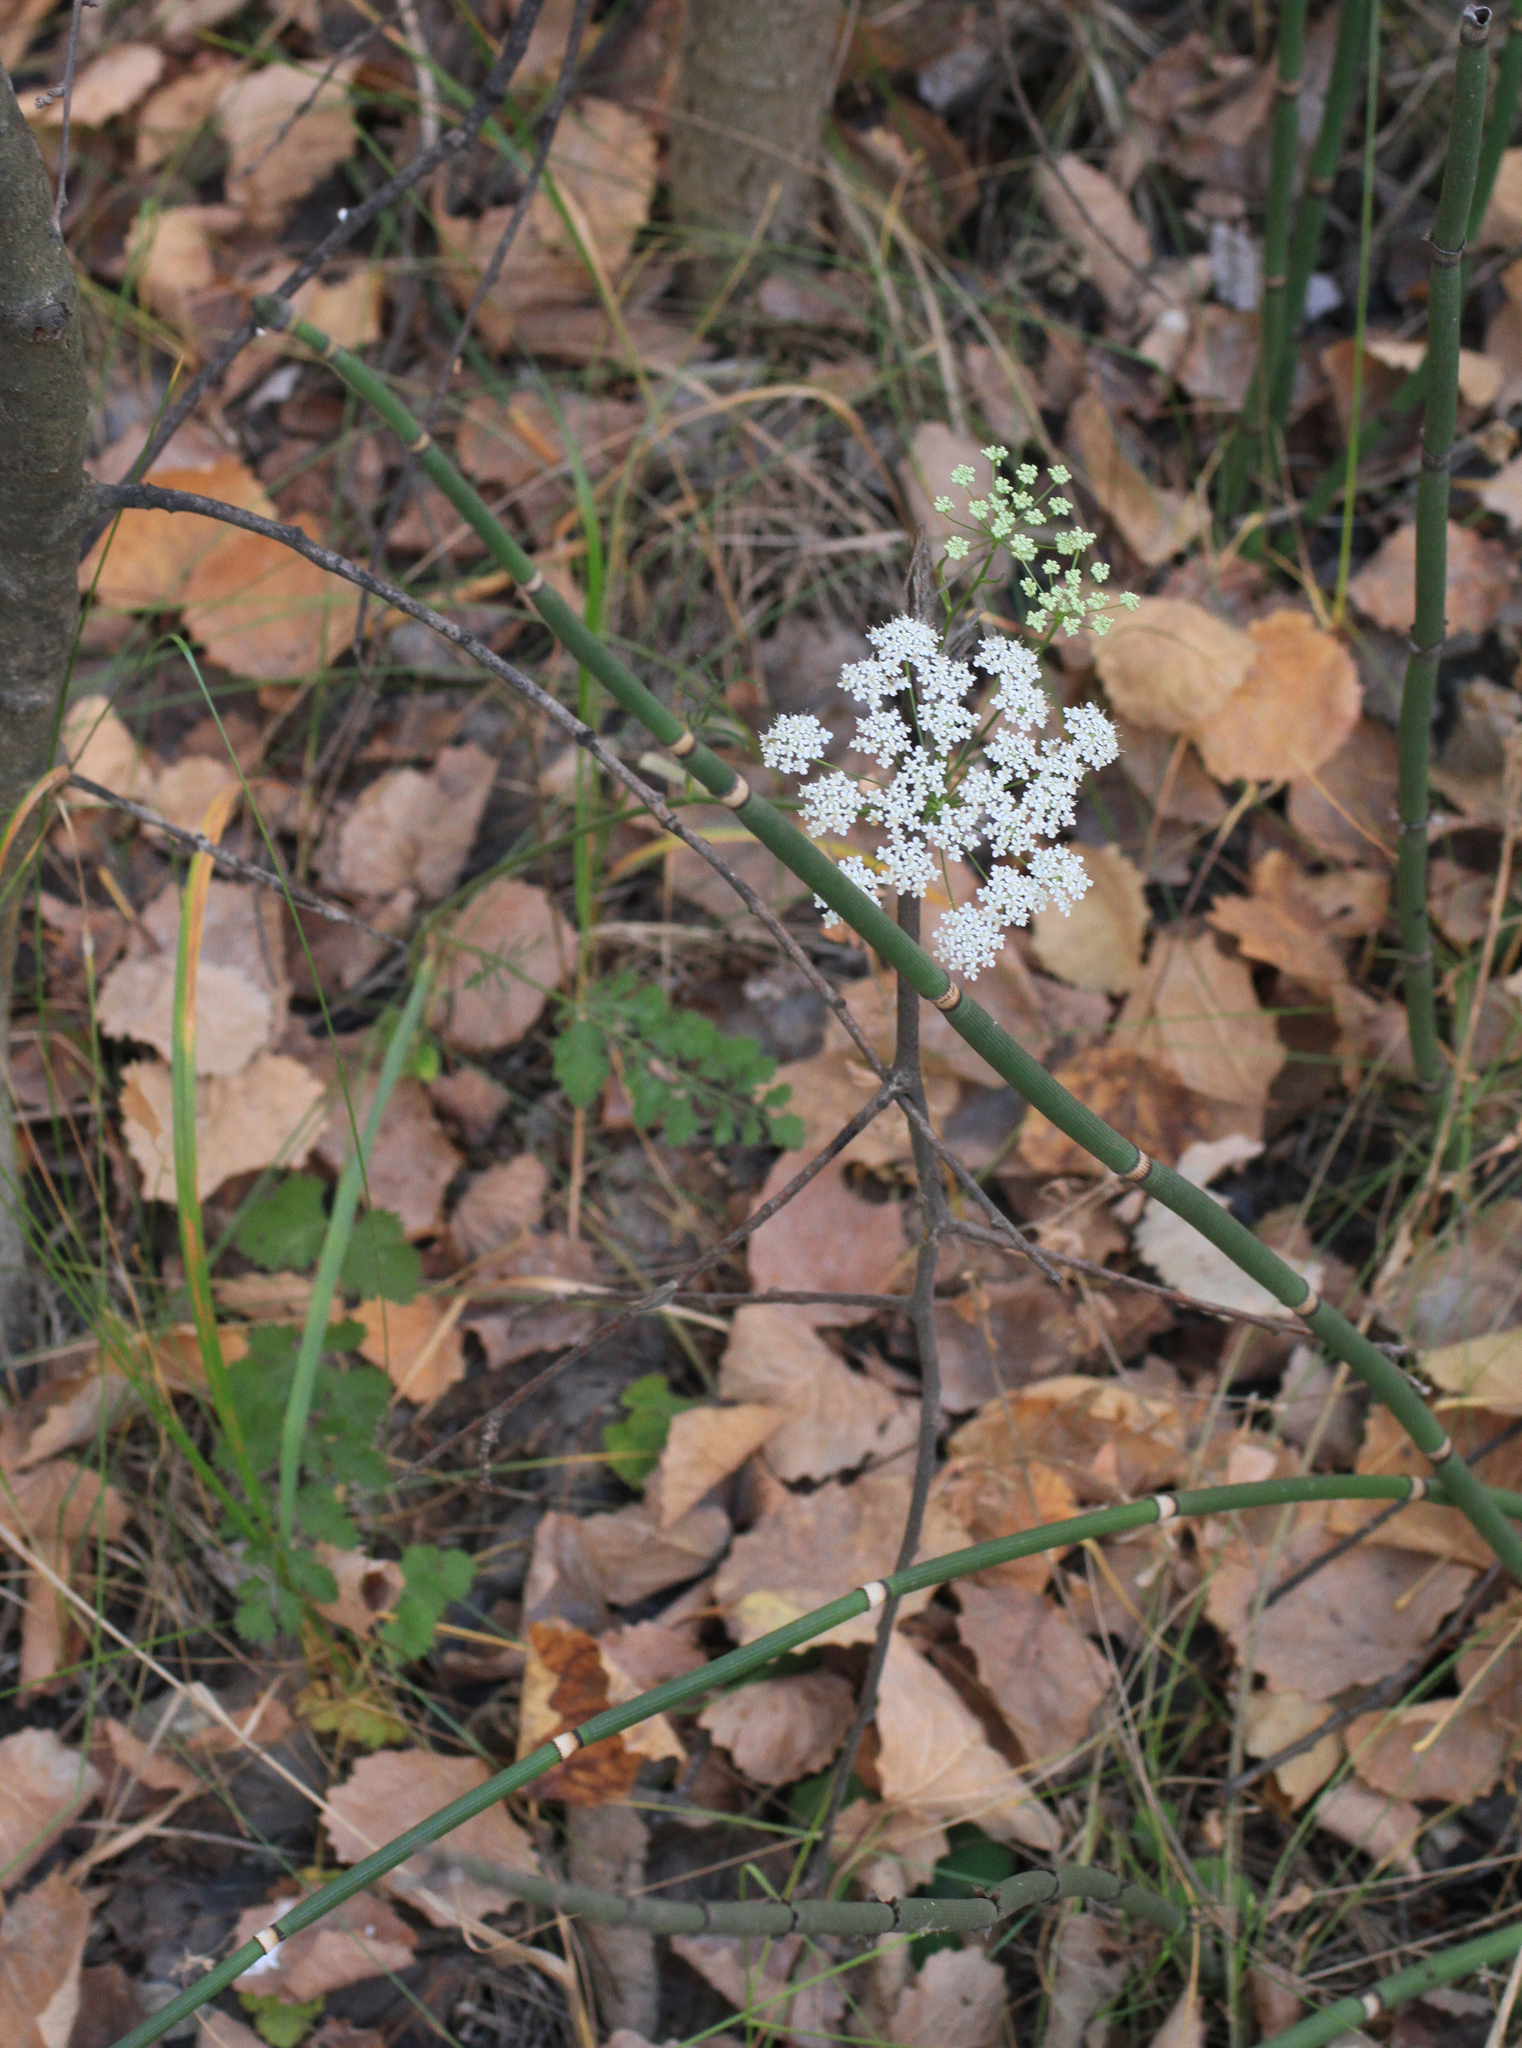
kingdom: Plantae
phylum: Tracheophyta
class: Magnoliopsida
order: Apiales
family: Apiaceae
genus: Pimpinella
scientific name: Pimpinella saxifraga
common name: Burnet-saxifrage
